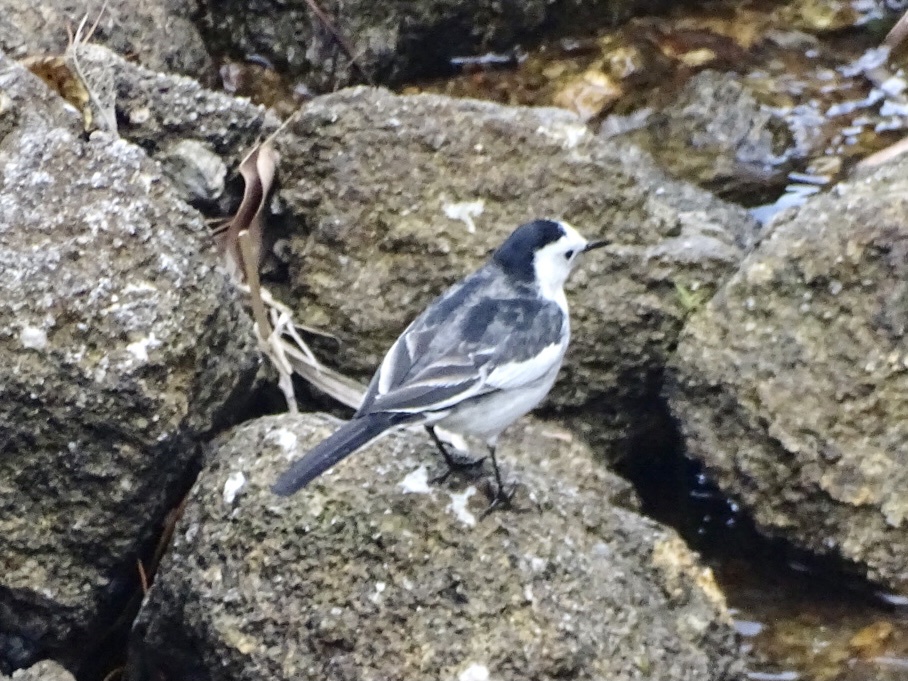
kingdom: Animalia
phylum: Chordata
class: Aves
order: Passeriformes
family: Motacillidae
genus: Motacilla
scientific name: Motacilla alba
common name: White wagtail
